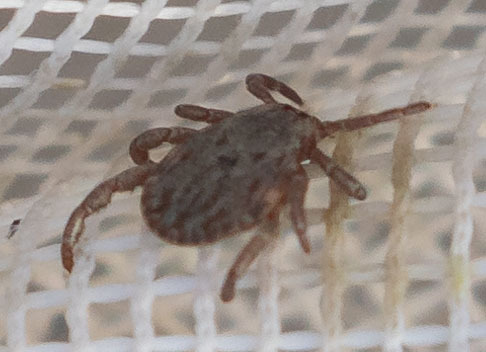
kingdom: Animalia
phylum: Arthropoda
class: Arachnida
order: Ixodida
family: Ixodidae
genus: Dermacentor
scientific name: Dermacentor occidentalis
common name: Net tick
